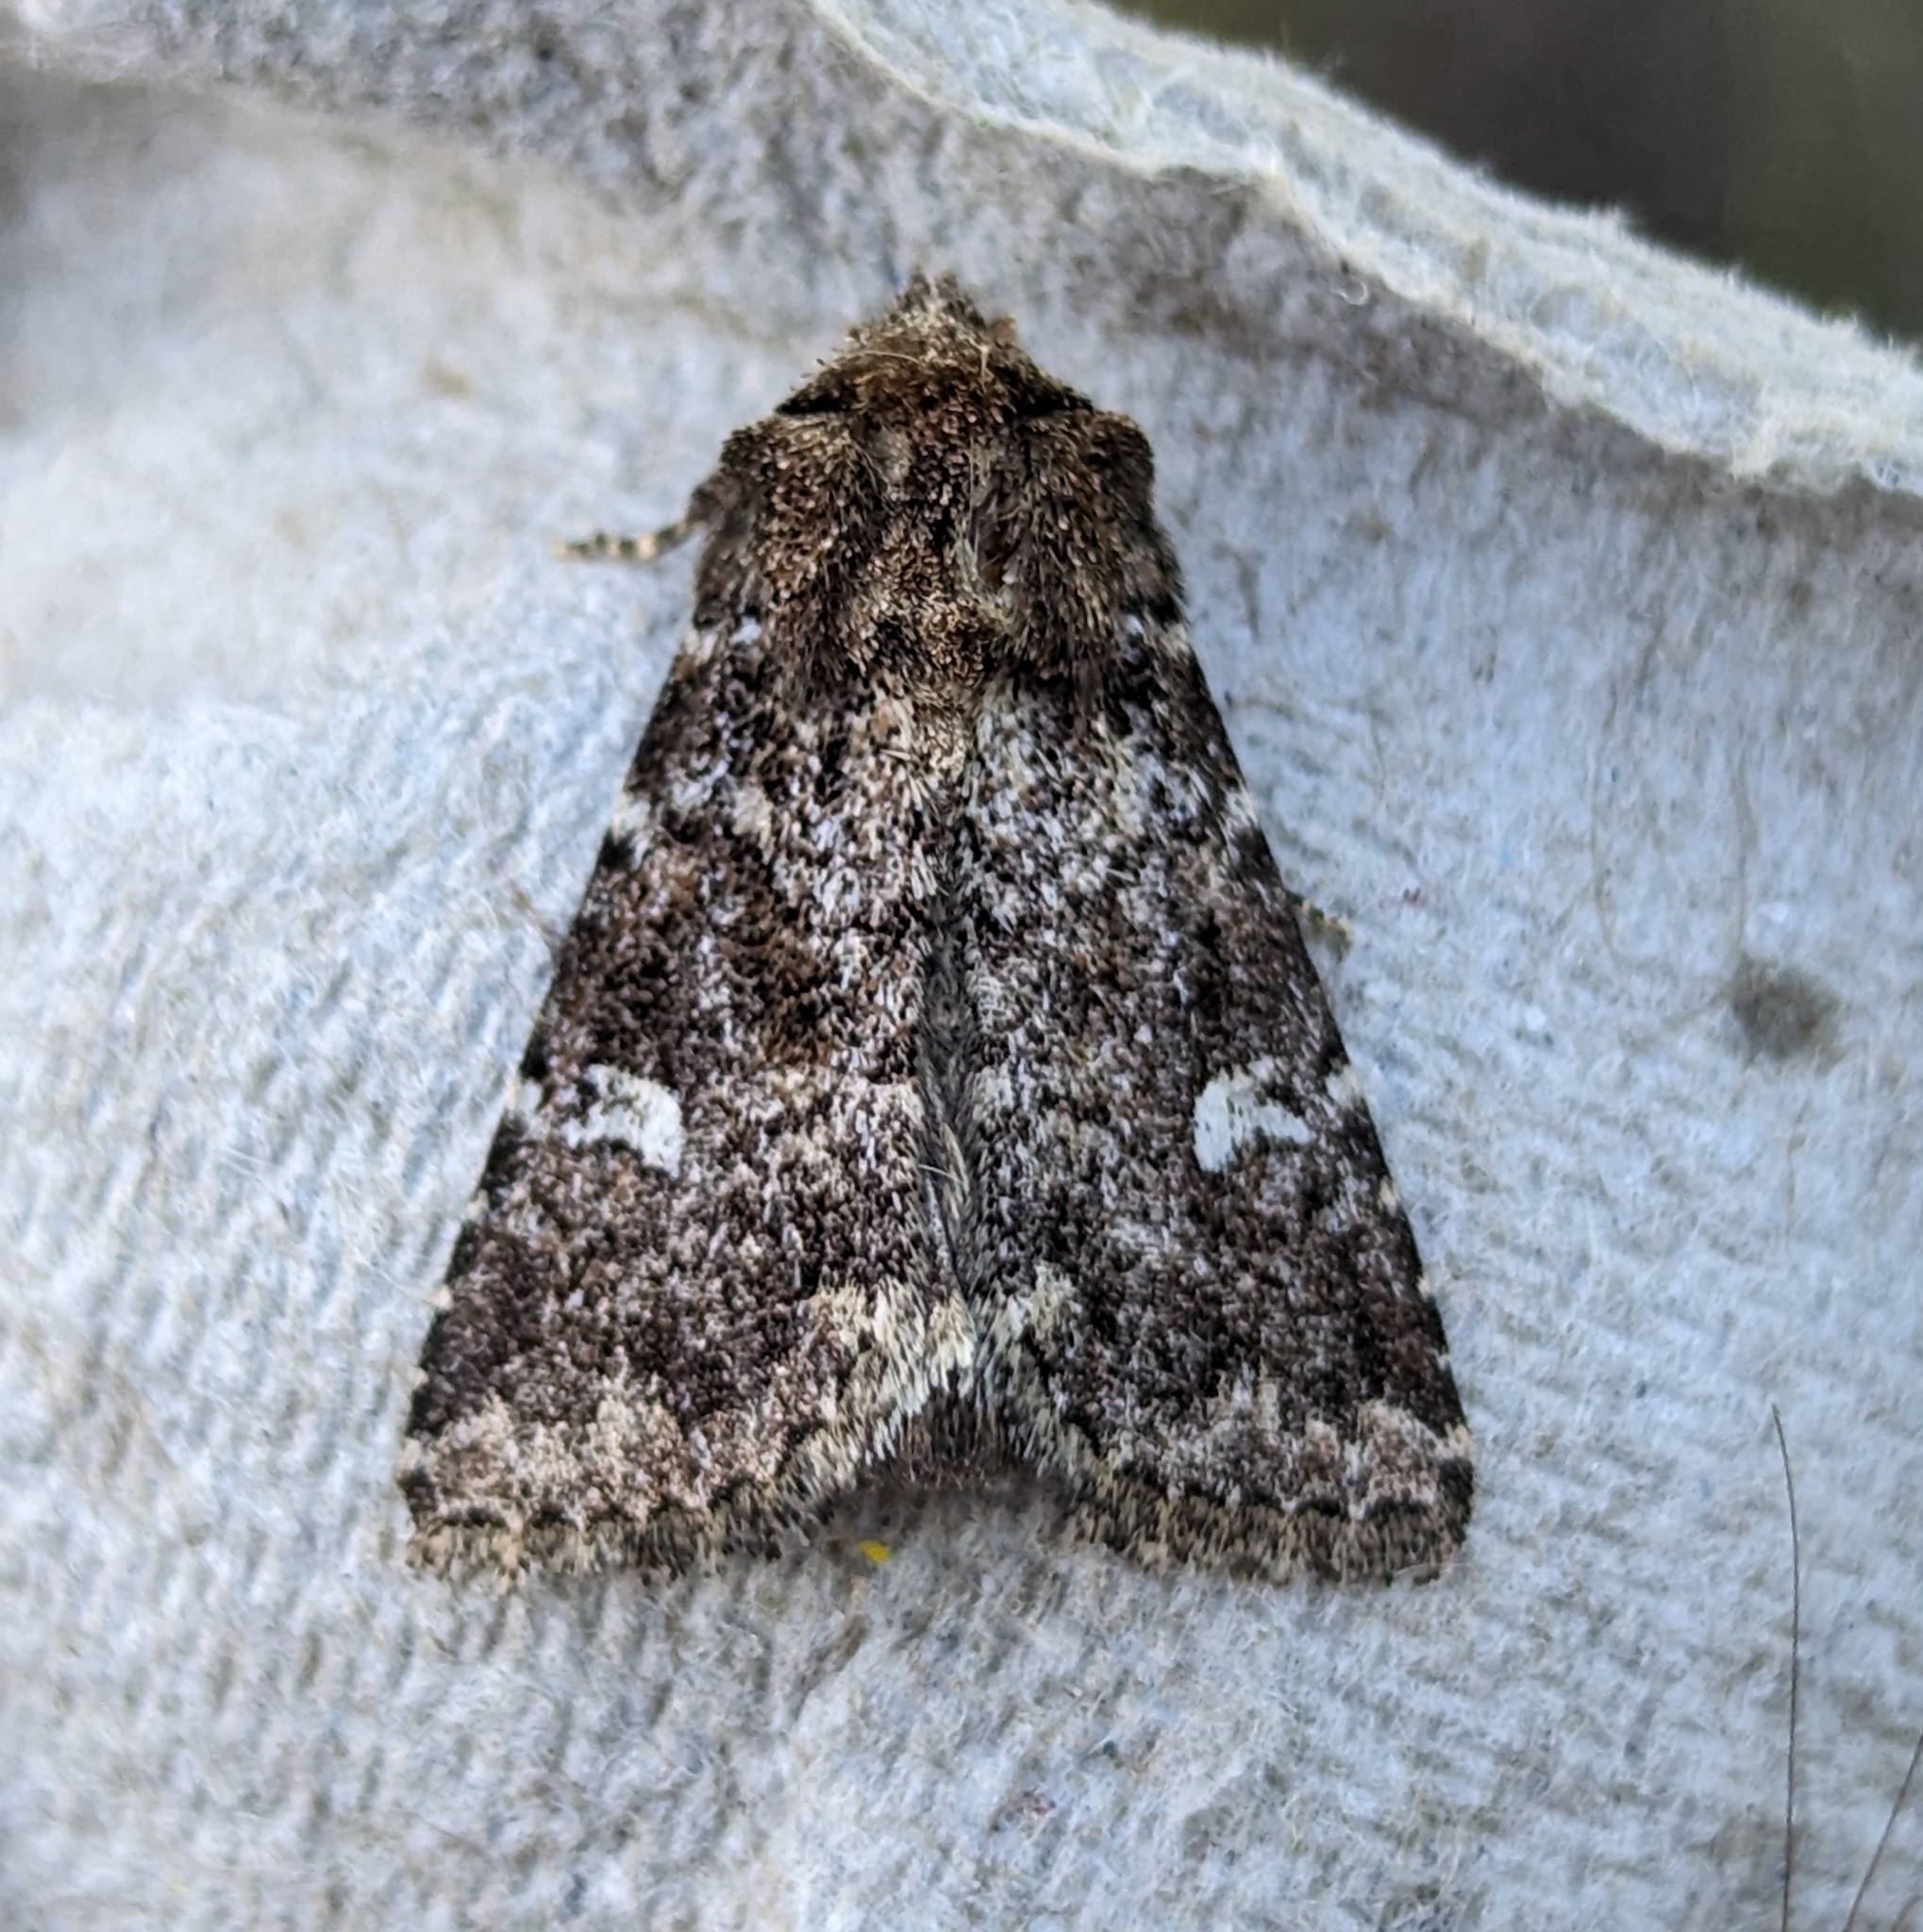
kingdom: Animalia
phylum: Arthropoda
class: Insecta
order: Lepidoptera
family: Noctuidae
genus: Properigea
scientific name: Properigea albimacula
